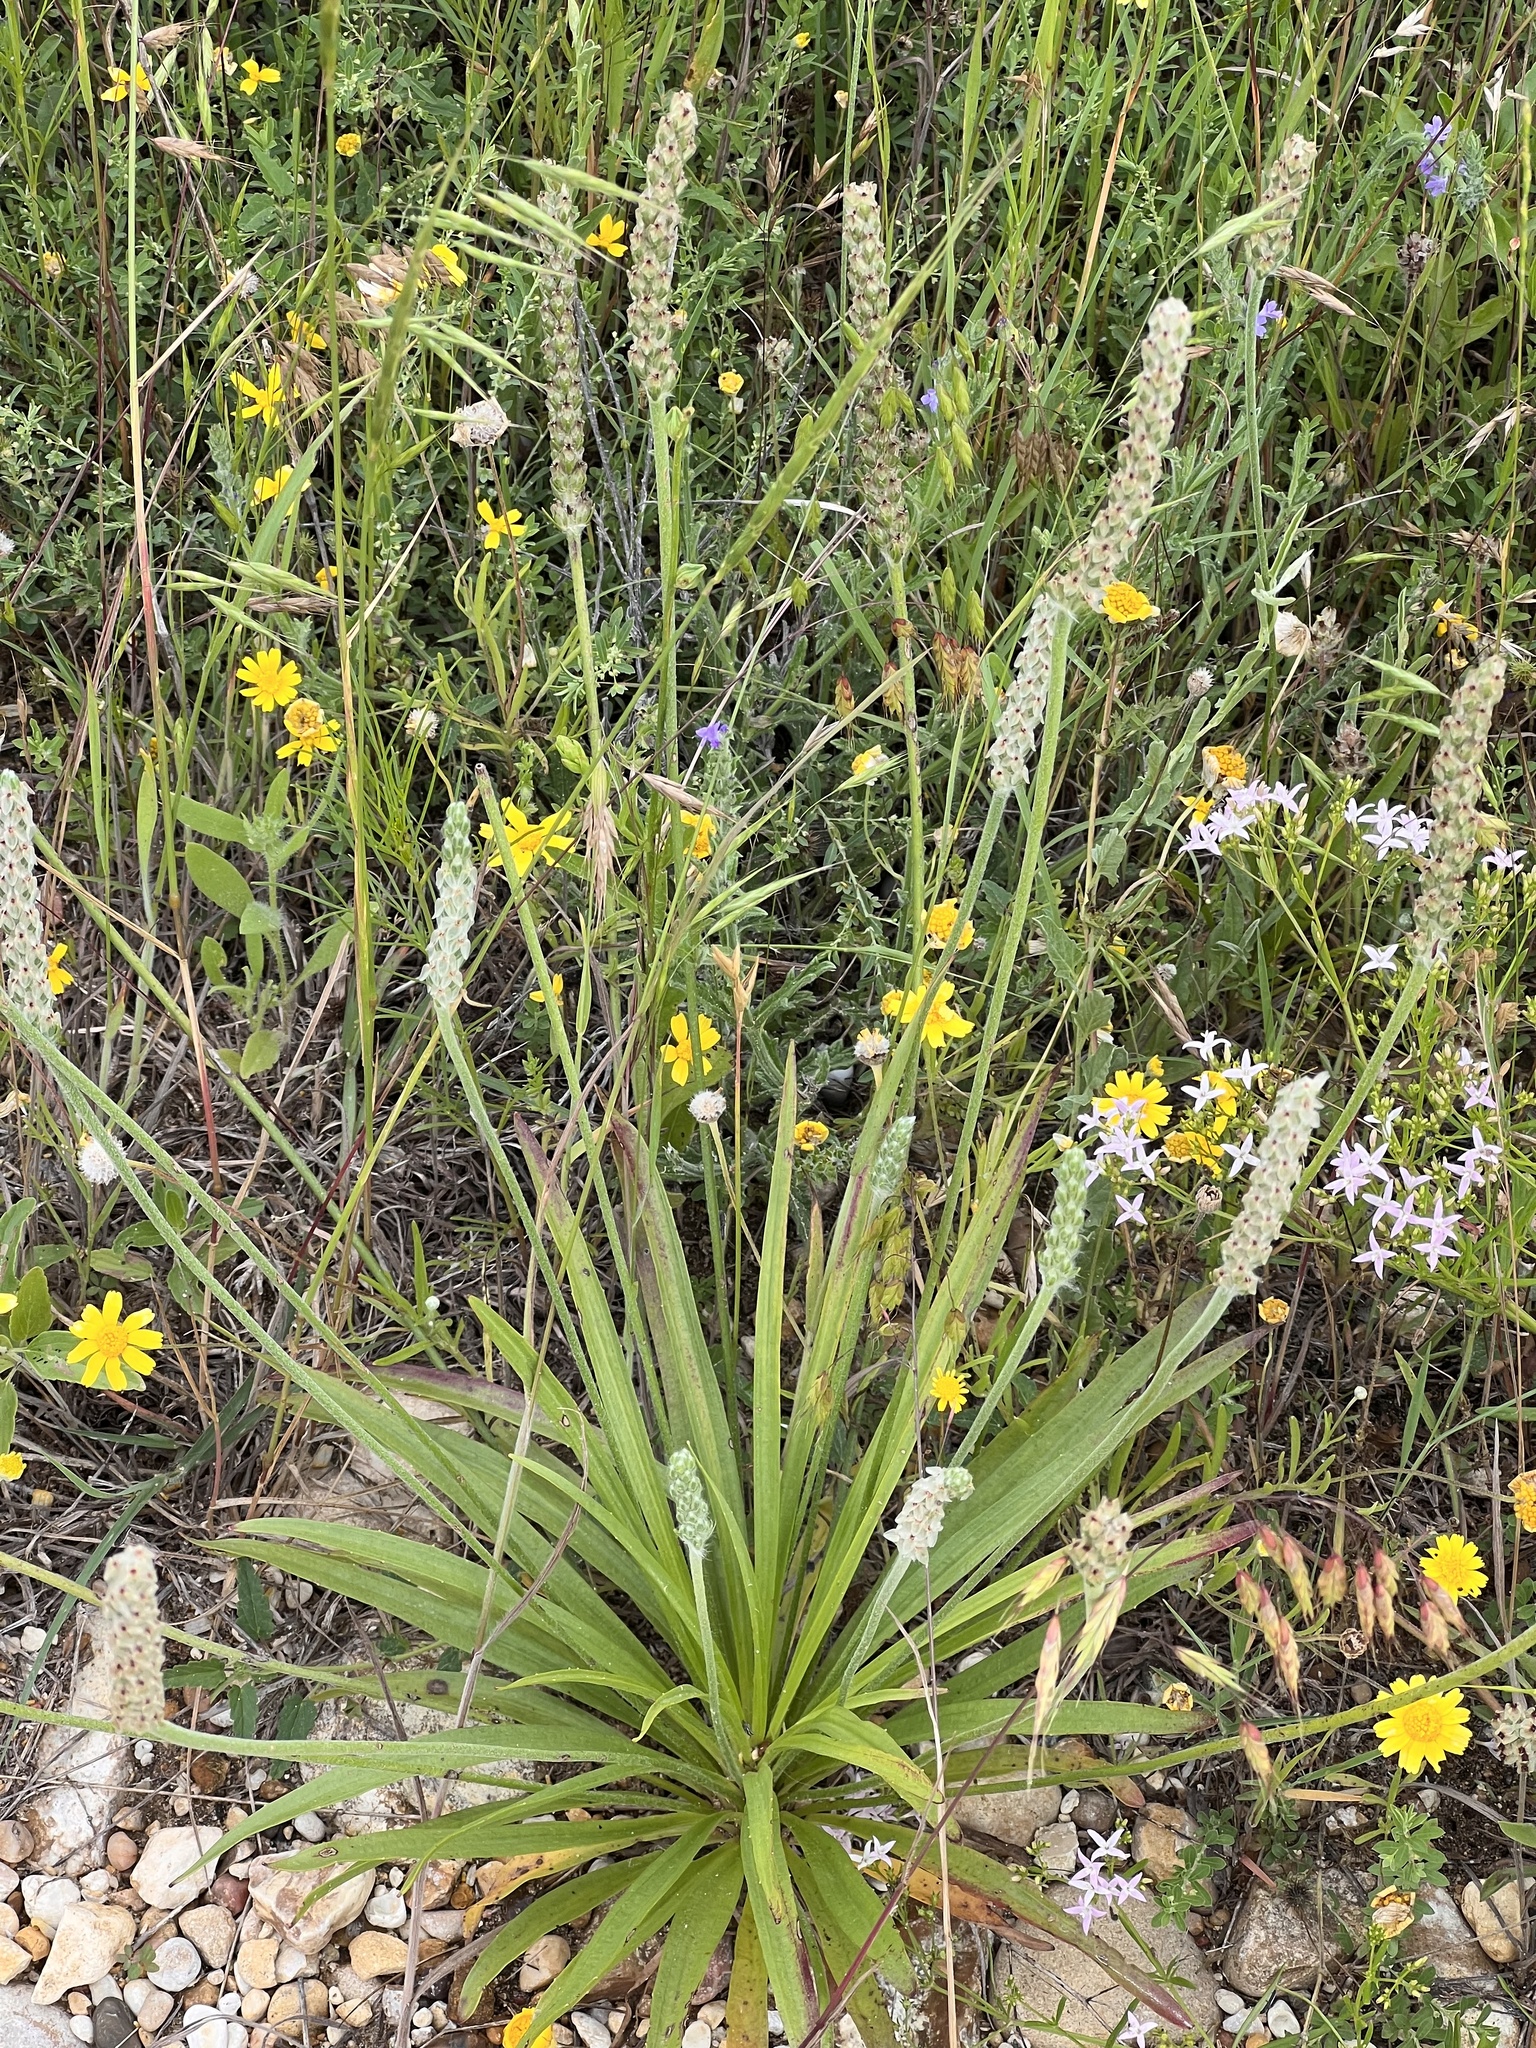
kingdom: Plantae
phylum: Tracheophyta
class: Magnoliopsida
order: Lamiales
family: Plantaginaceae
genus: Plantago
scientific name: Plantago rhodosperma
